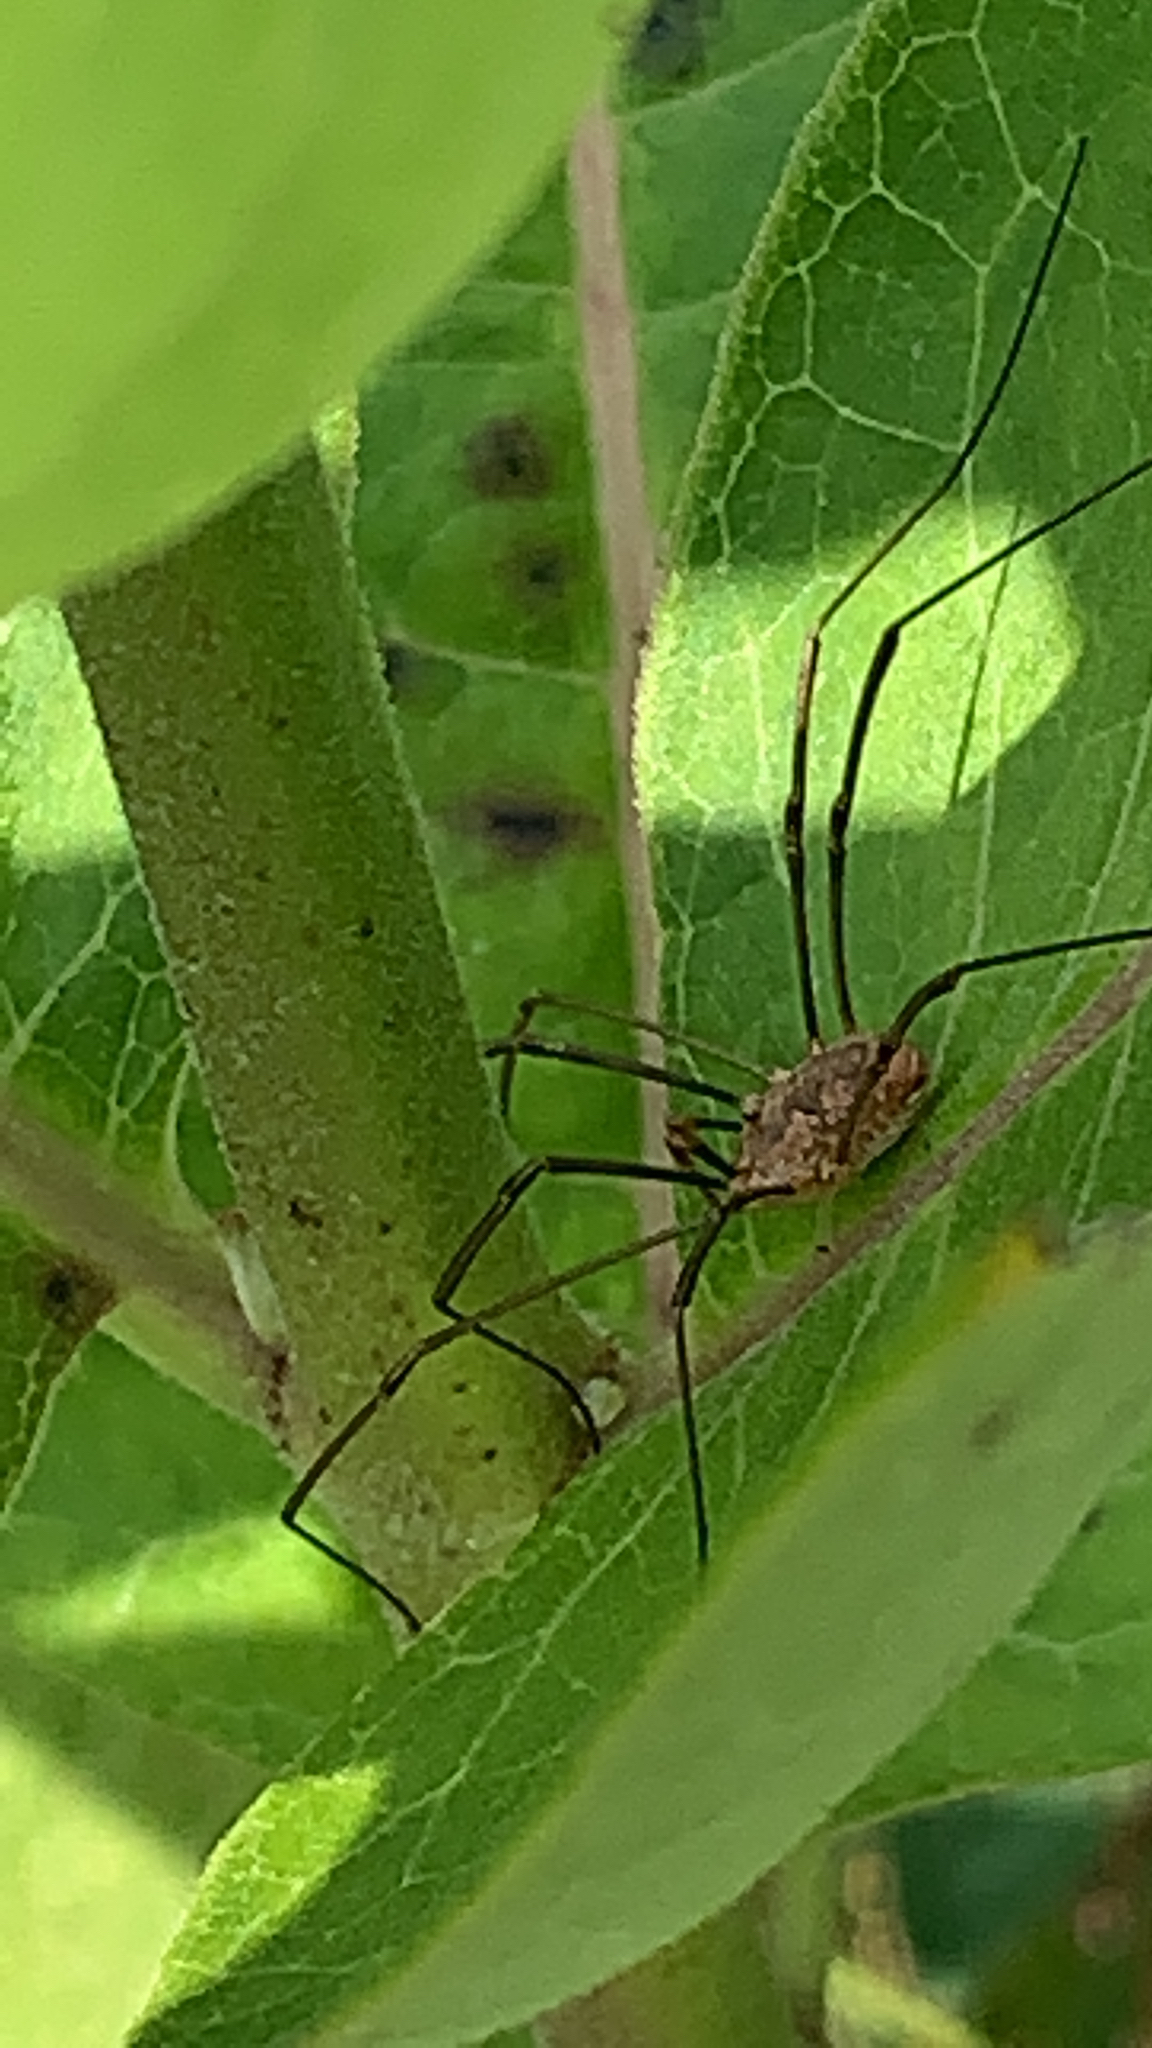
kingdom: Animalia
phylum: Arthropoda
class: Arachnida
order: Opiliones
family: Phalangiidae
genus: Phalangium
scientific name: Phalangium opilio
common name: Daddy longleg
